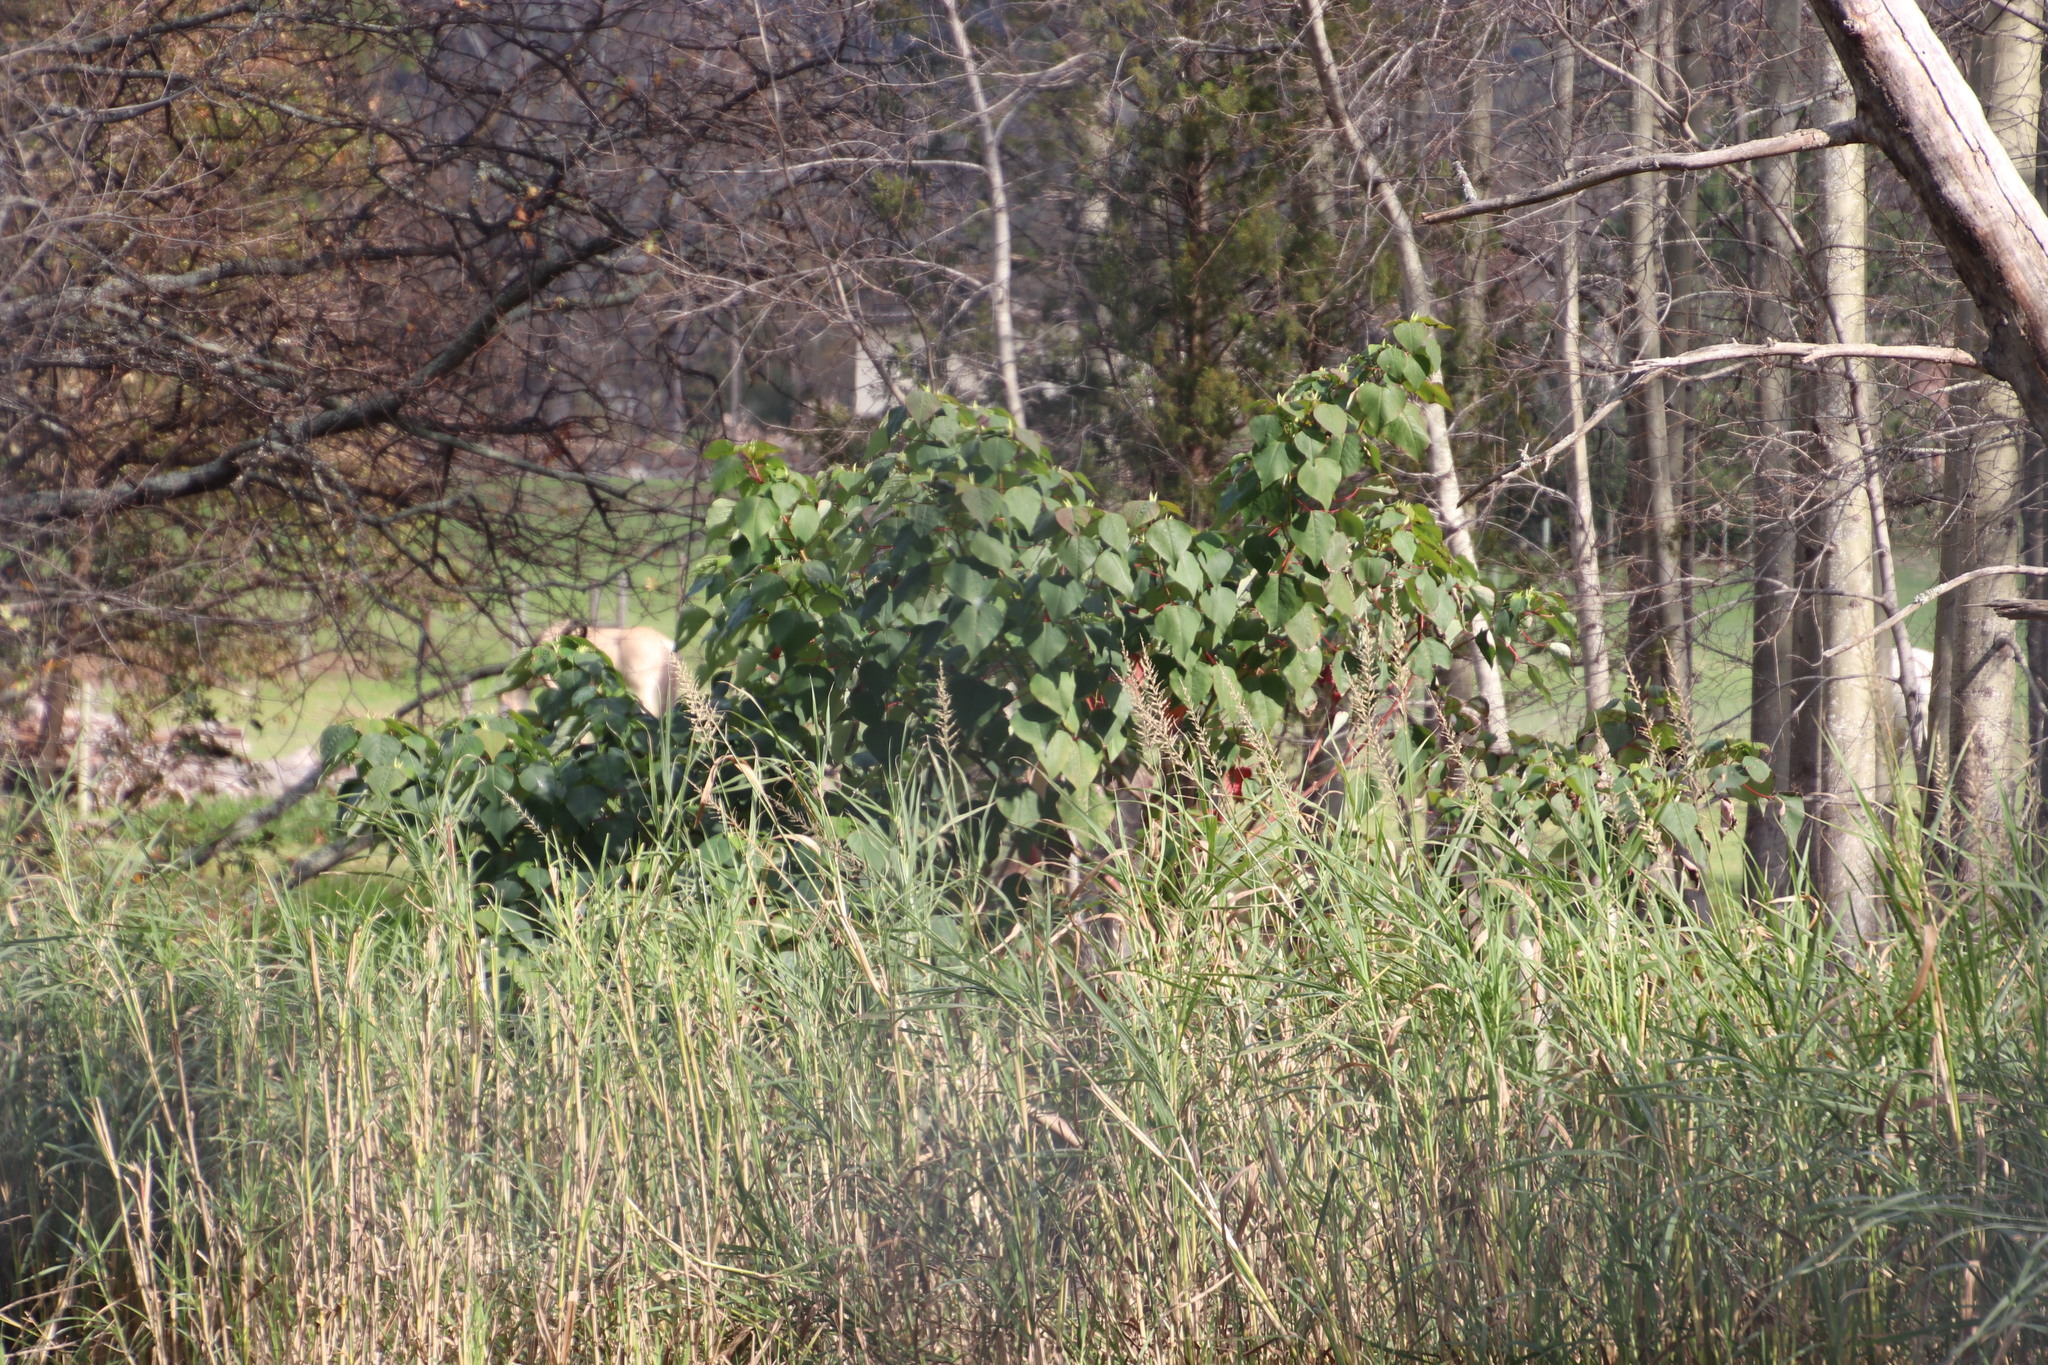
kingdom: Plantae
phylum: Tracheophyta
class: Magnoliopsida
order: Malpighiales
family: Euphorbiaceae
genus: Homalanthus
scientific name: Homalanthus populifolius
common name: Queensland poplar
